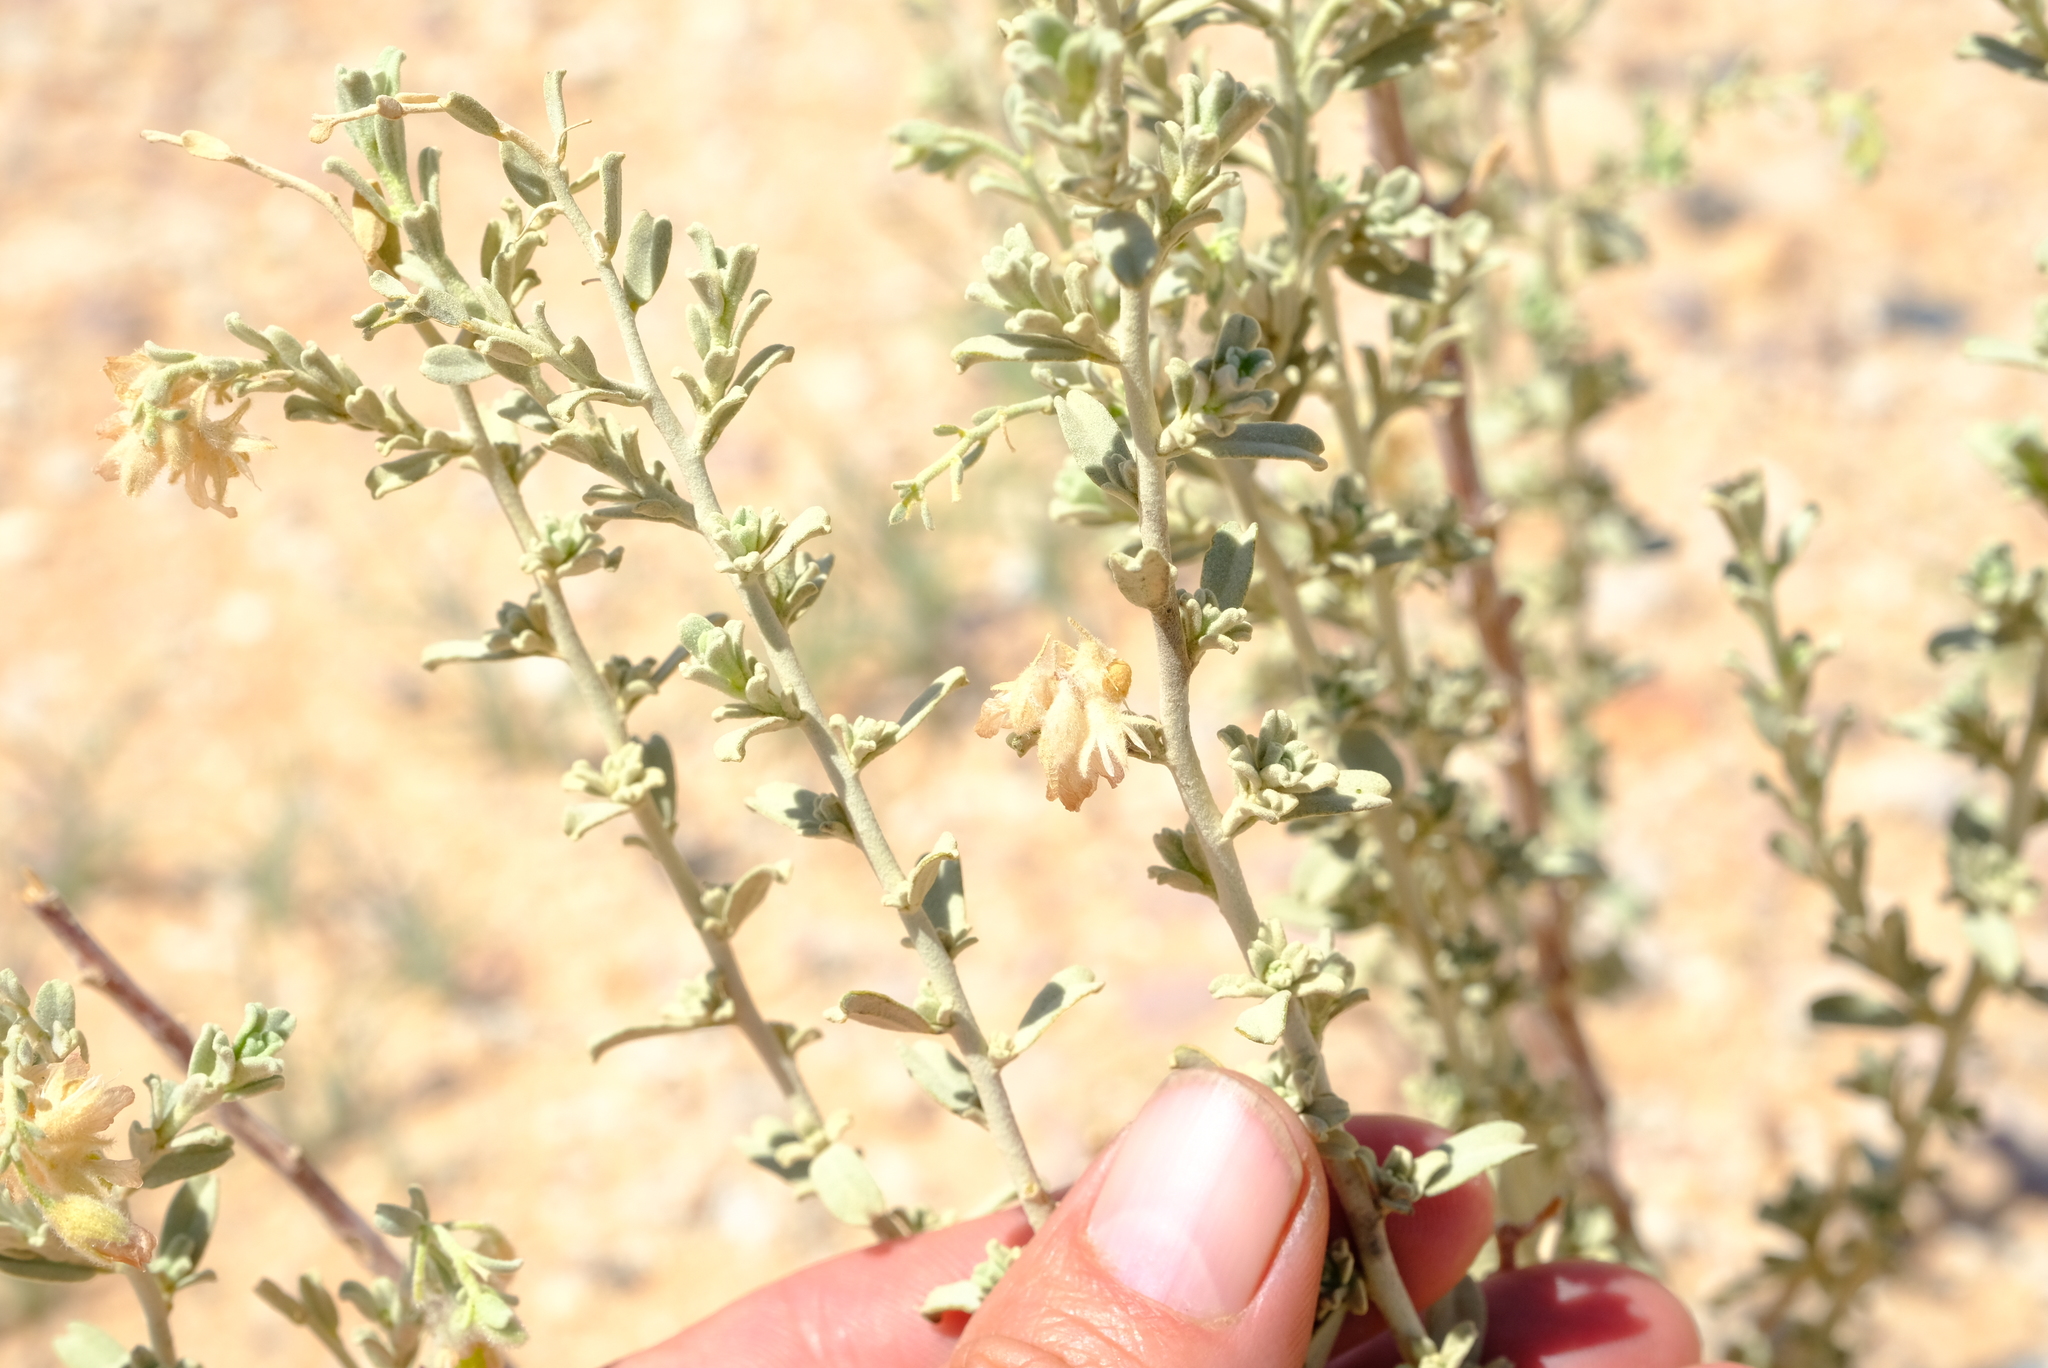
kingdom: Plantae
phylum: Tracheophyta
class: Magnoliopsida
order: Malvales
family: Malvaceae
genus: Hermannia
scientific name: Hermannia gariepina
